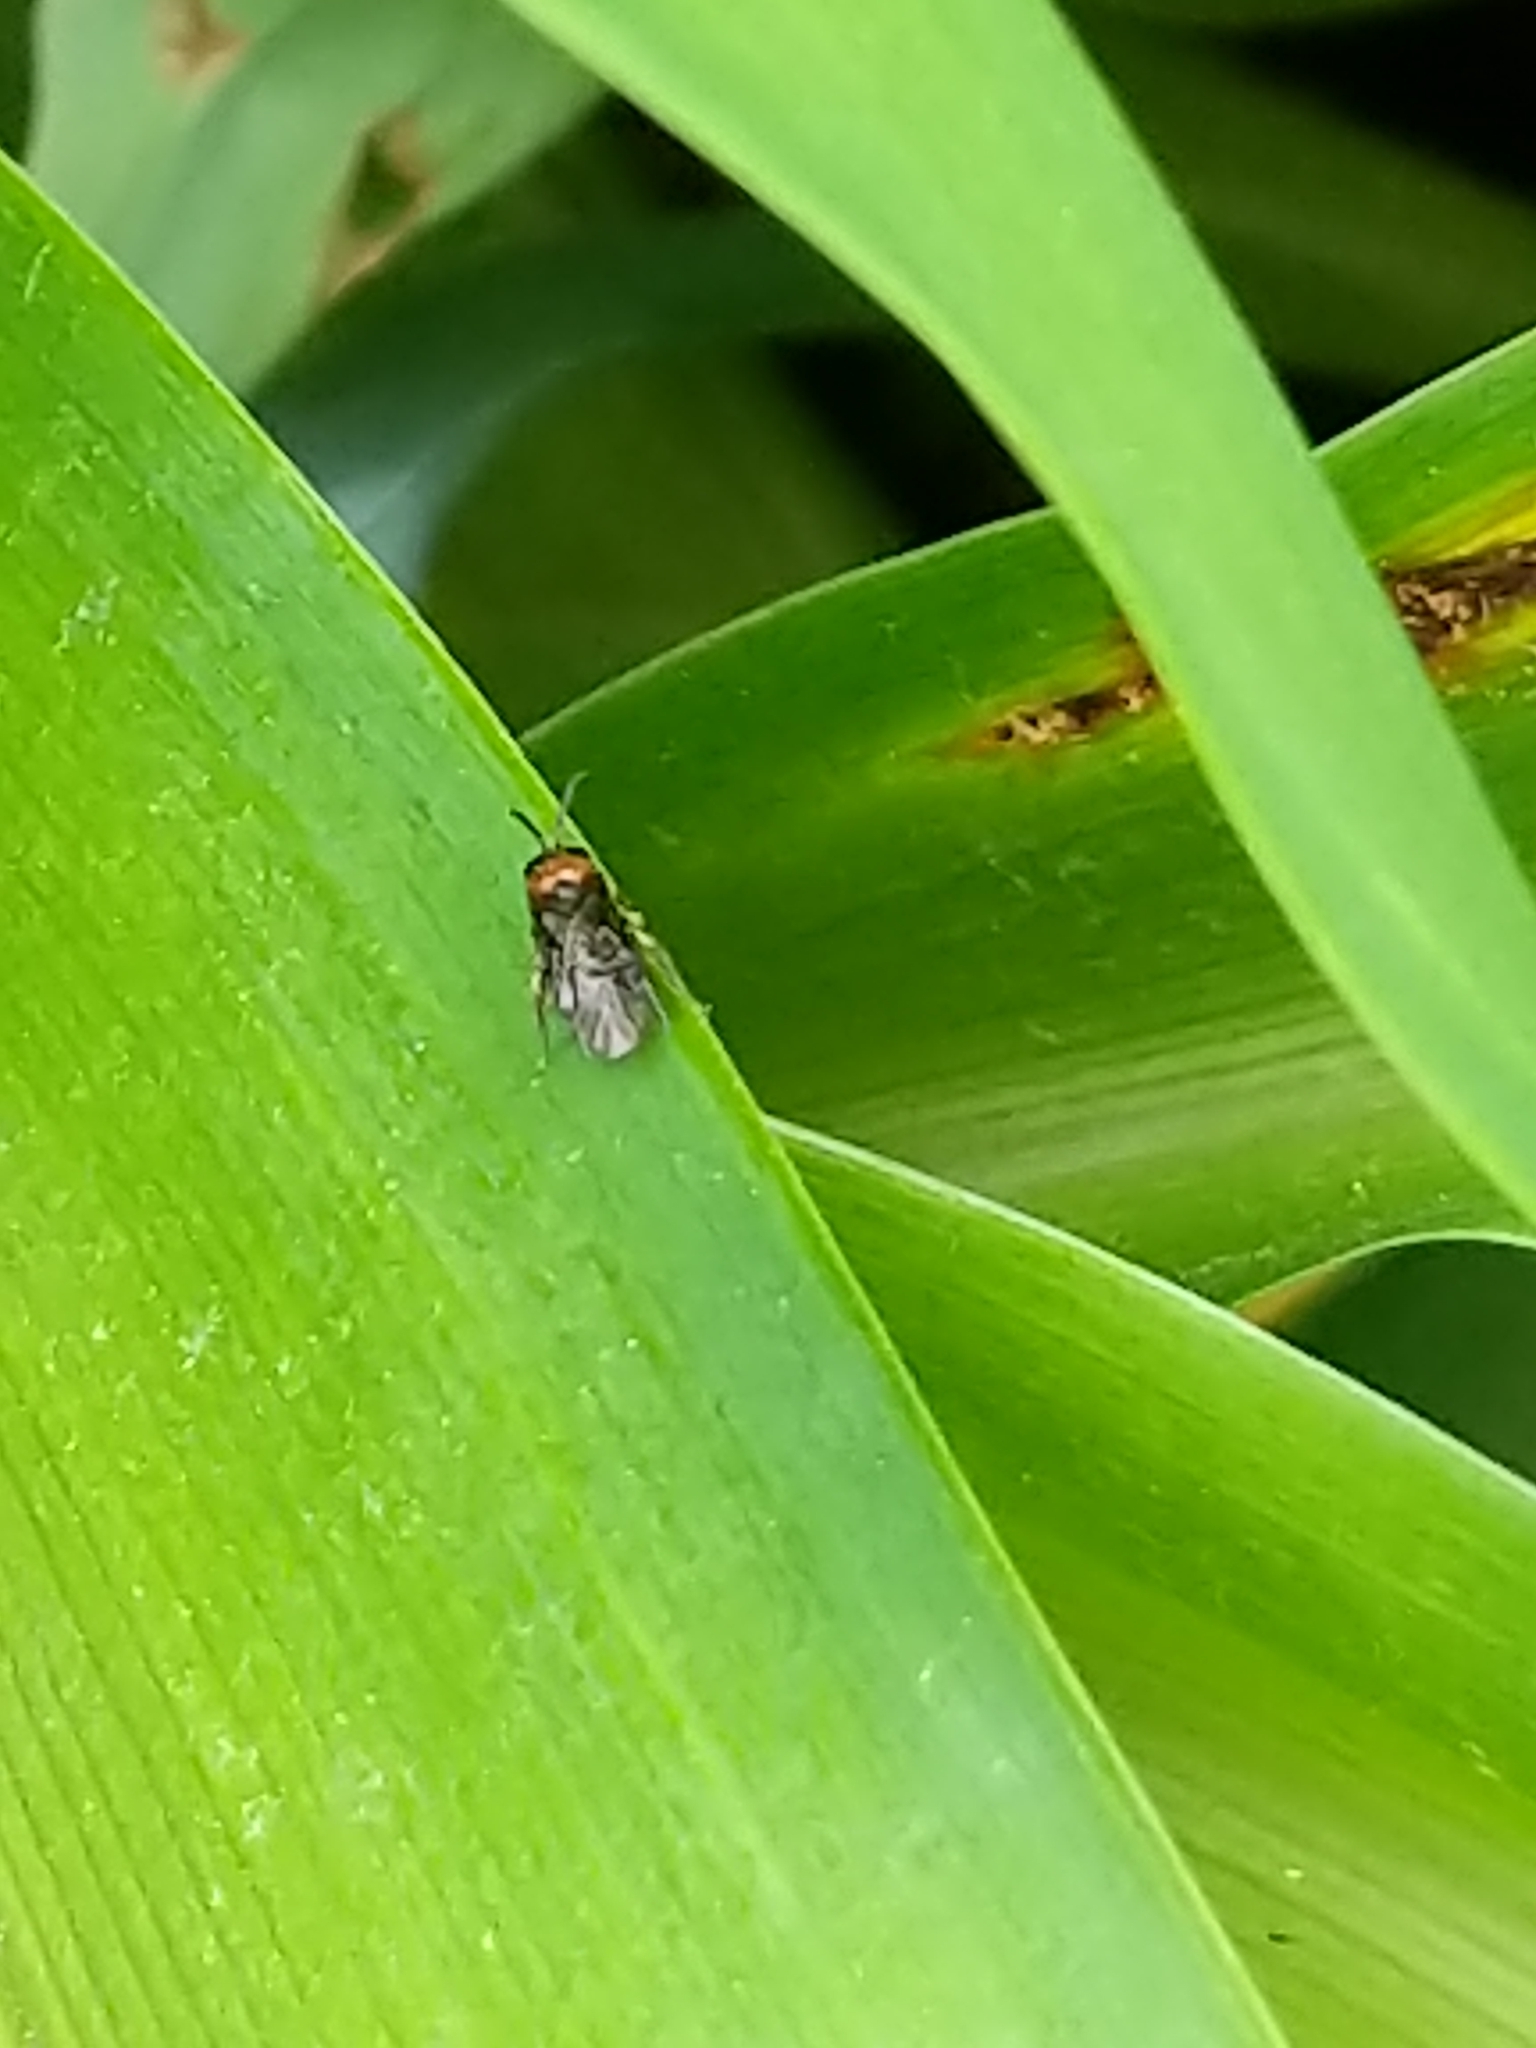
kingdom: Animalia
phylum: Arthropoda
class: Insecta
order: Hymenoptera
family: Tenthredinidae
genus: Eutomostethus
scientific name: Eutomostethus ephippium
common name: Tenthredid wasp
